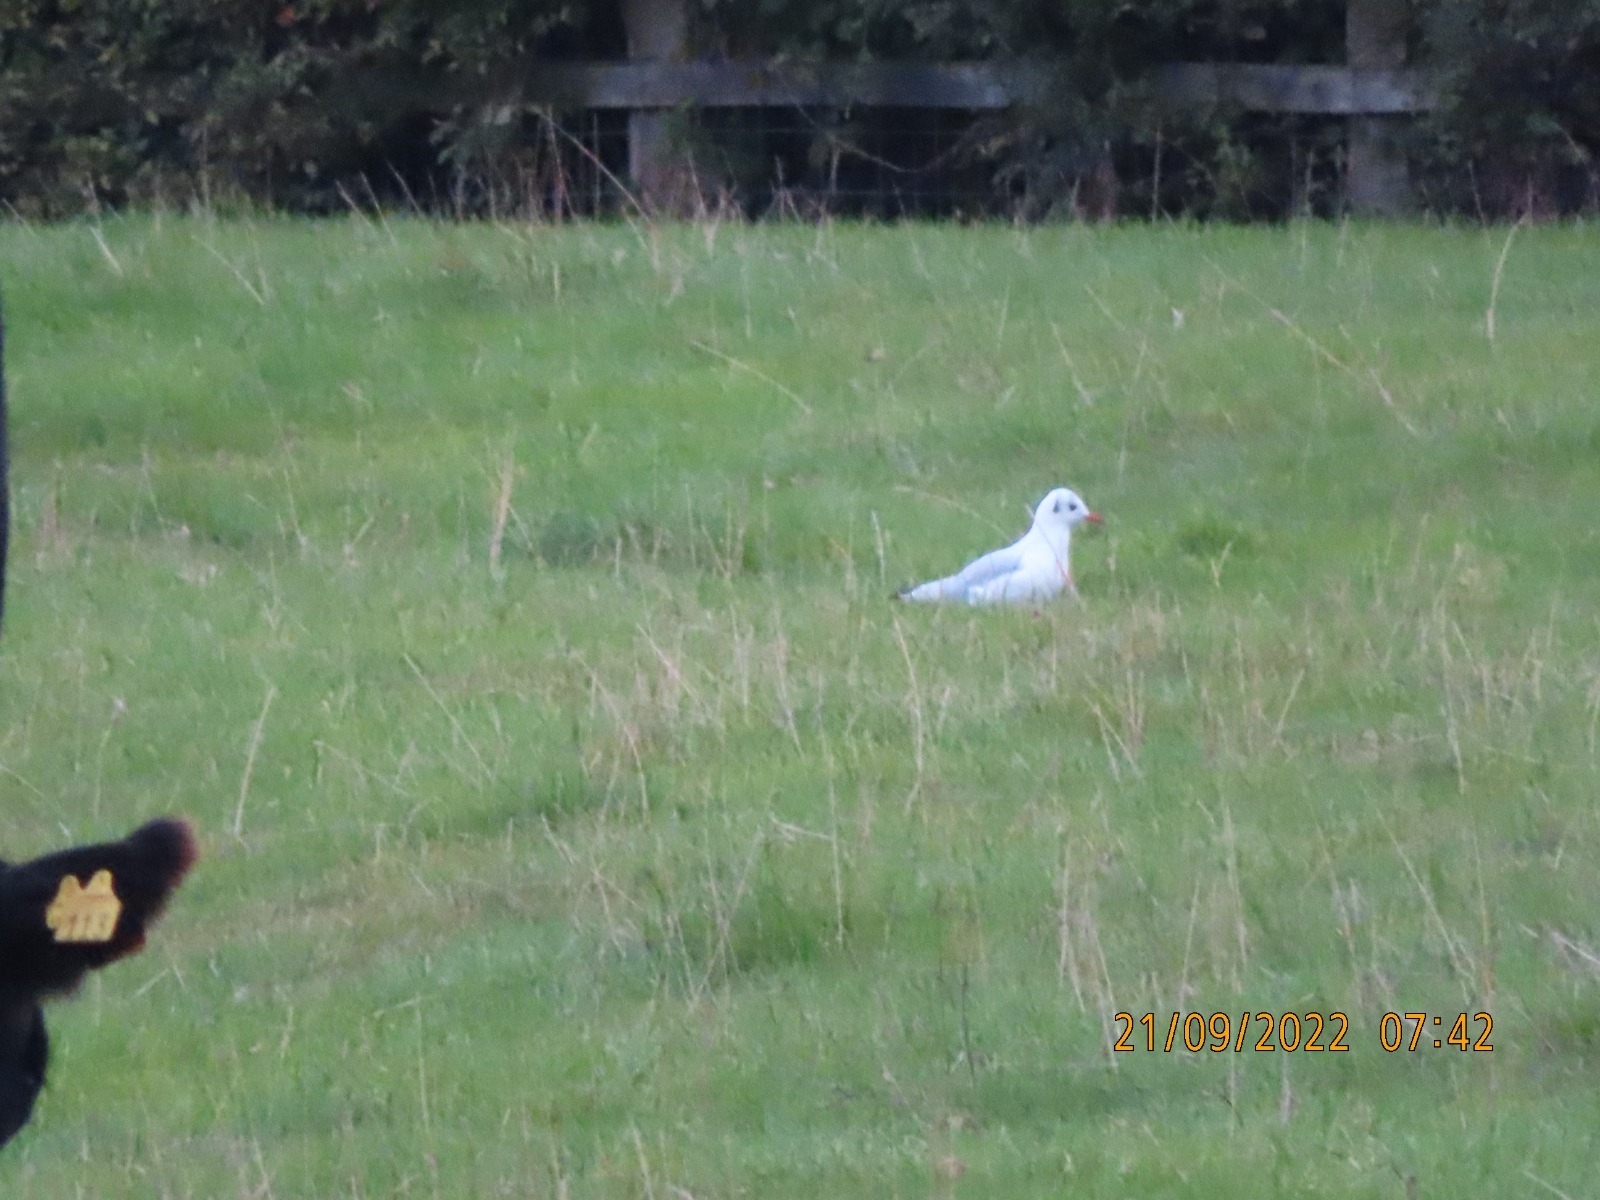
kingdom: Animalia
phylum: Chordata
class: Aves
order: Charadriiformes
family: Laridae
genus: Chroicocephalus
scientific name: Chroicocephalus ridibundus
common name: Black-headed gull
